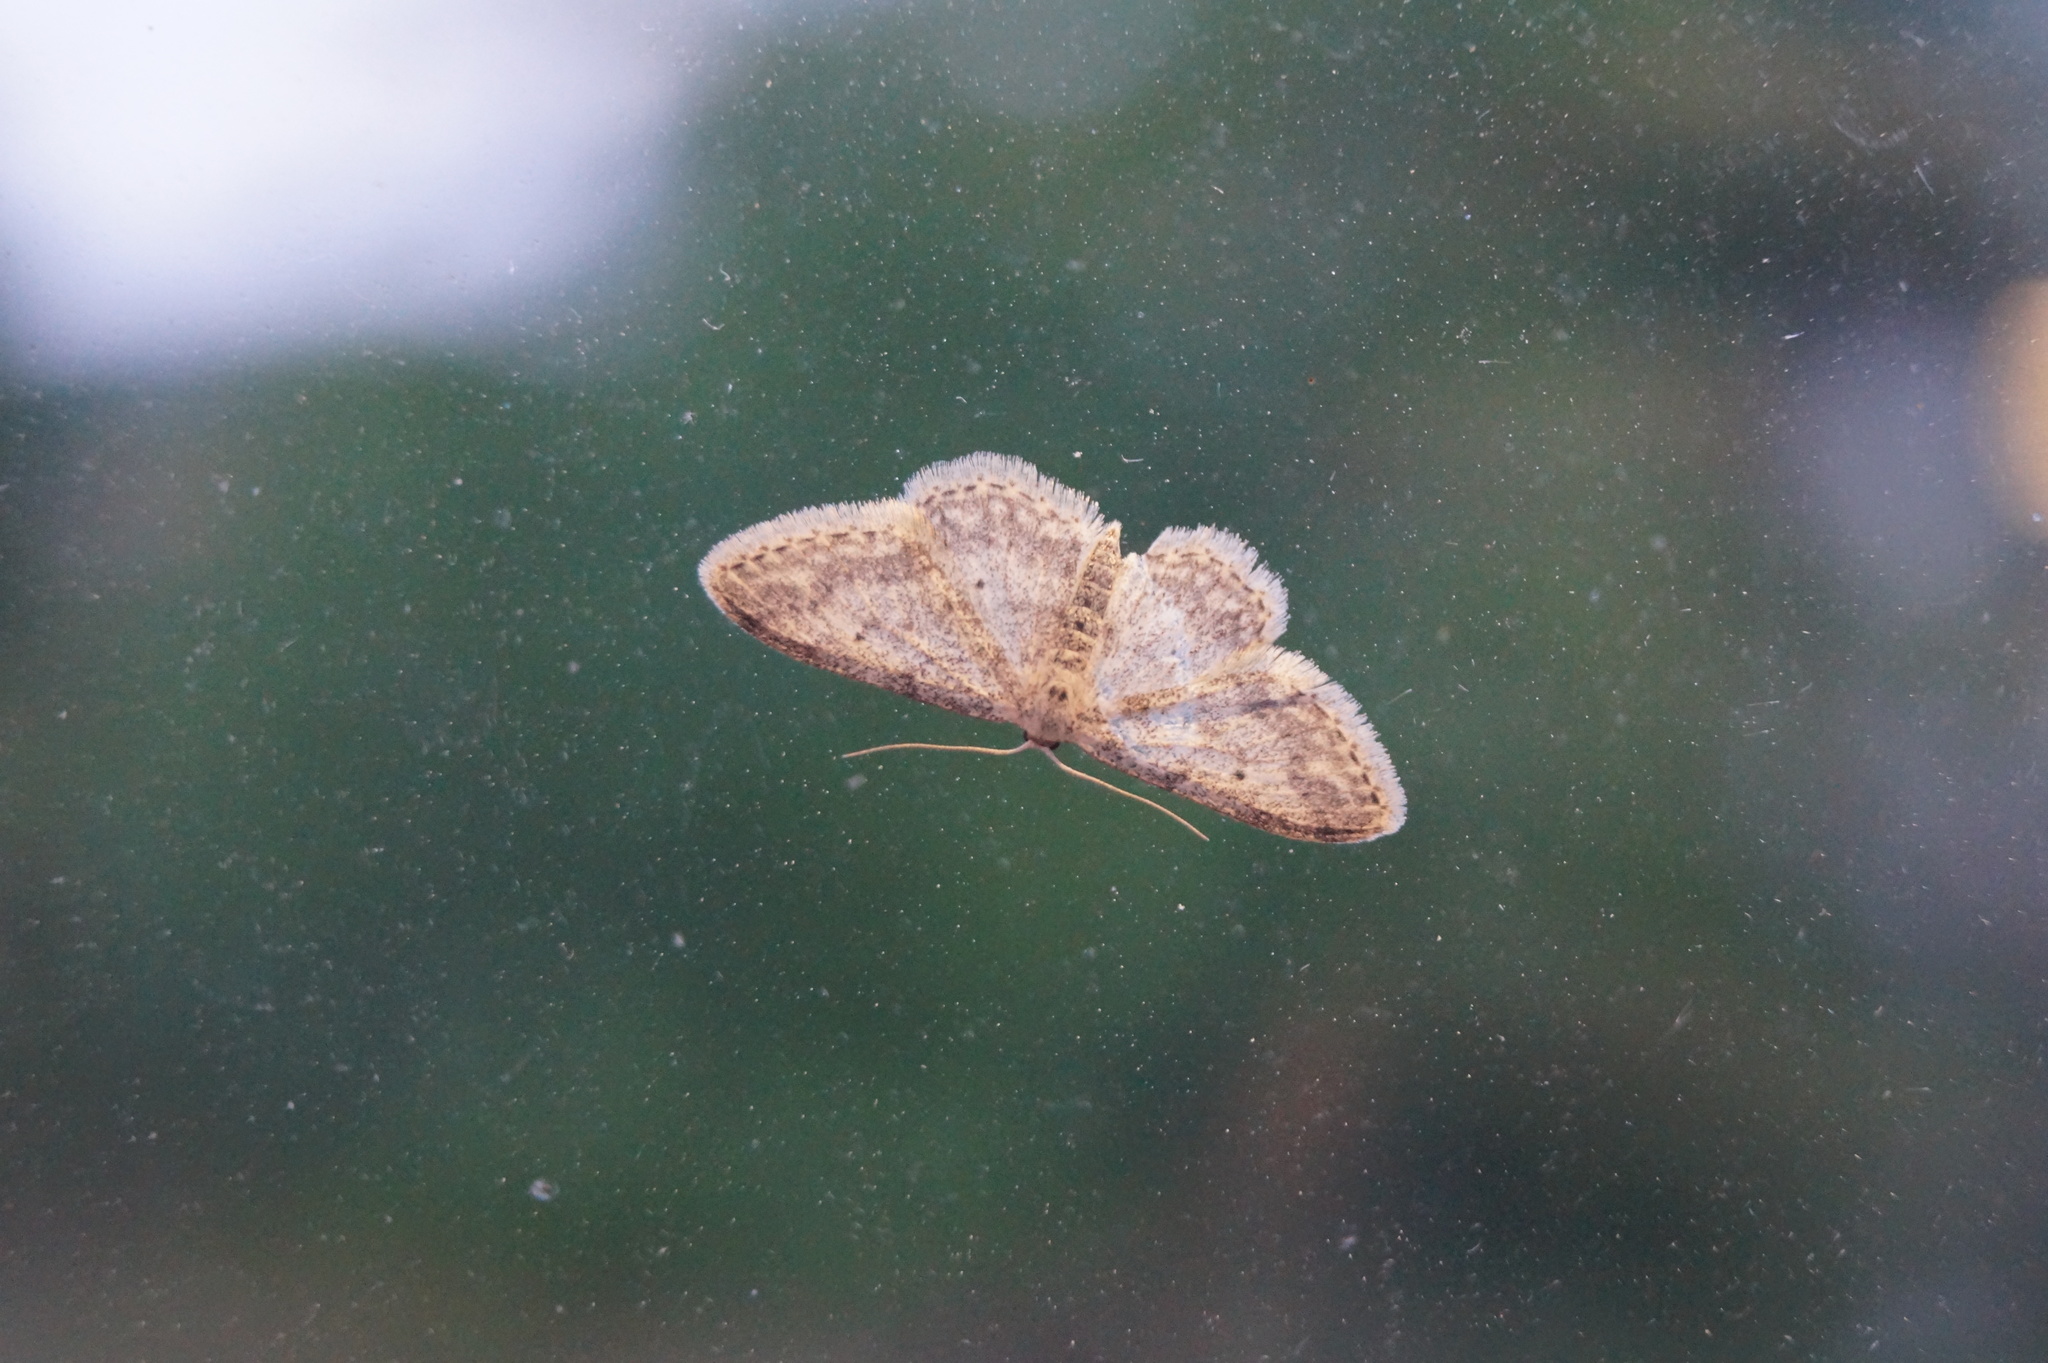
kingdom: Animalia
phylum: Arthropoda
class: Insecta
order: Lepidoptera
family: Geometridae
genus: Idaea
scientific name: Idaea seriata
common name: Small dusty wave
